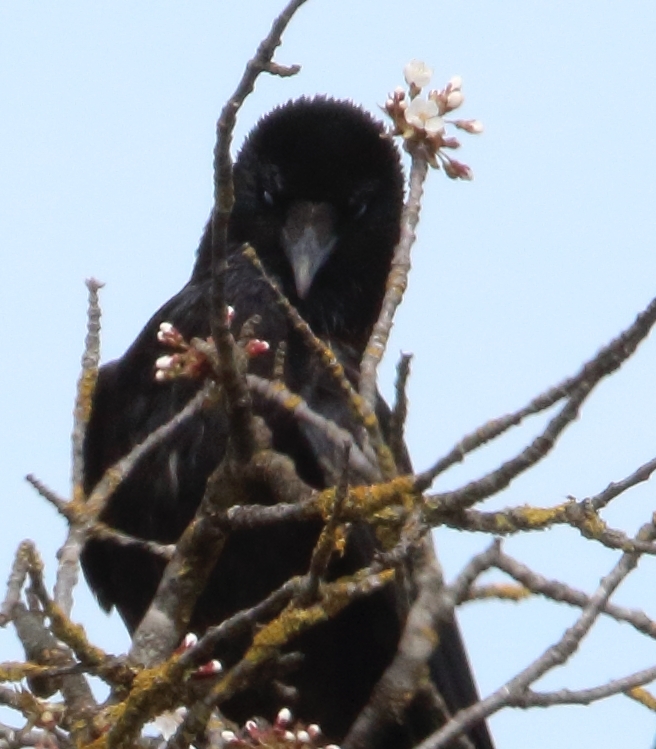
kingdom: Animalia
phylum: Chordata
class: Aves
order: Passeriformes
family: Corvidae
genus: Corvus
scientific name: Corvus corone
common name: Carrion crow
